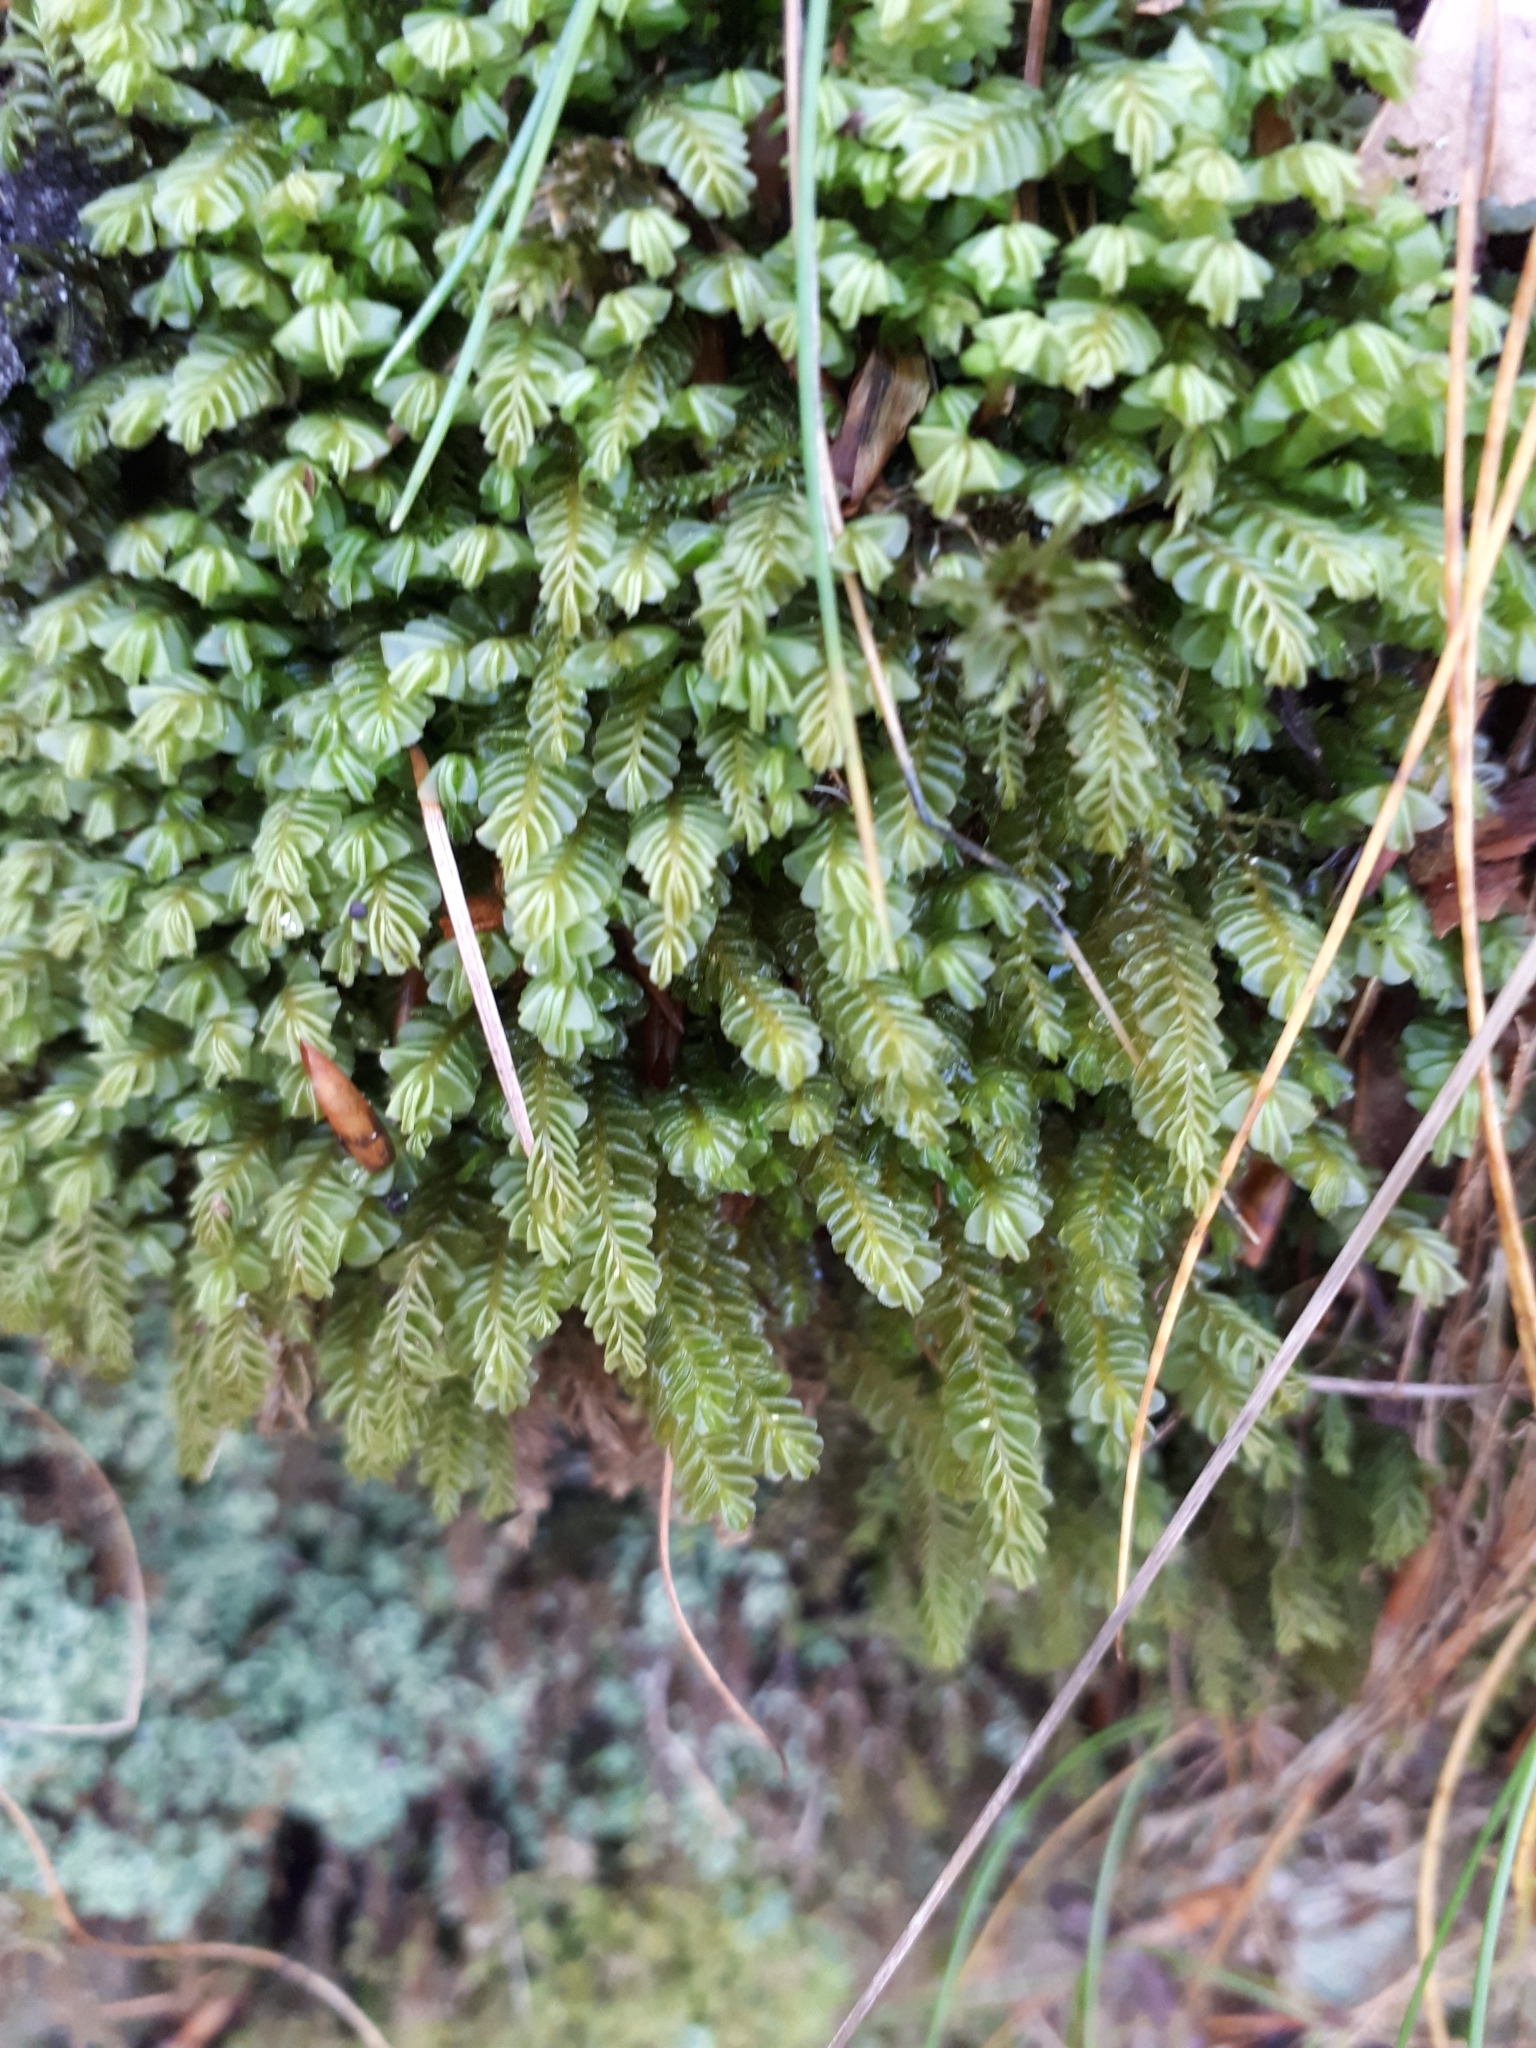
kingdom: Plantae
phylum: Marchantiophyta
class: Jungermanniopsida
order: Jungermanniales
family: Plagiochilaceae
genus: Plagiochila
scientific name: Plagiochila porelloides
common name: Lesser featherwort
